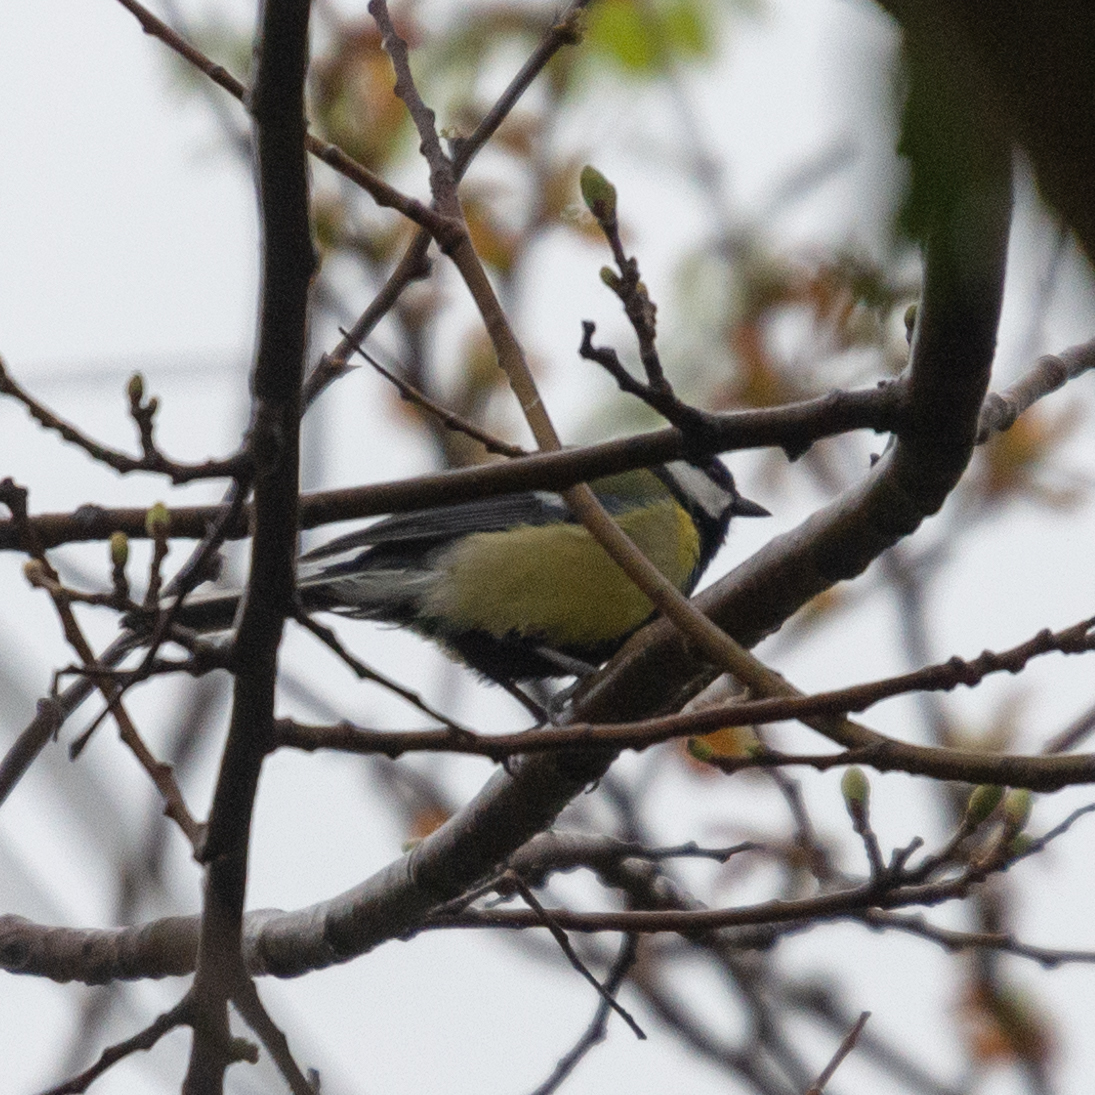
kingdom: Animalia
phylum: Chordata
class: Aves
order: Passeriformes
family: Paridae
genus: Parus
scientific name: Parus major
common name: Great tit
